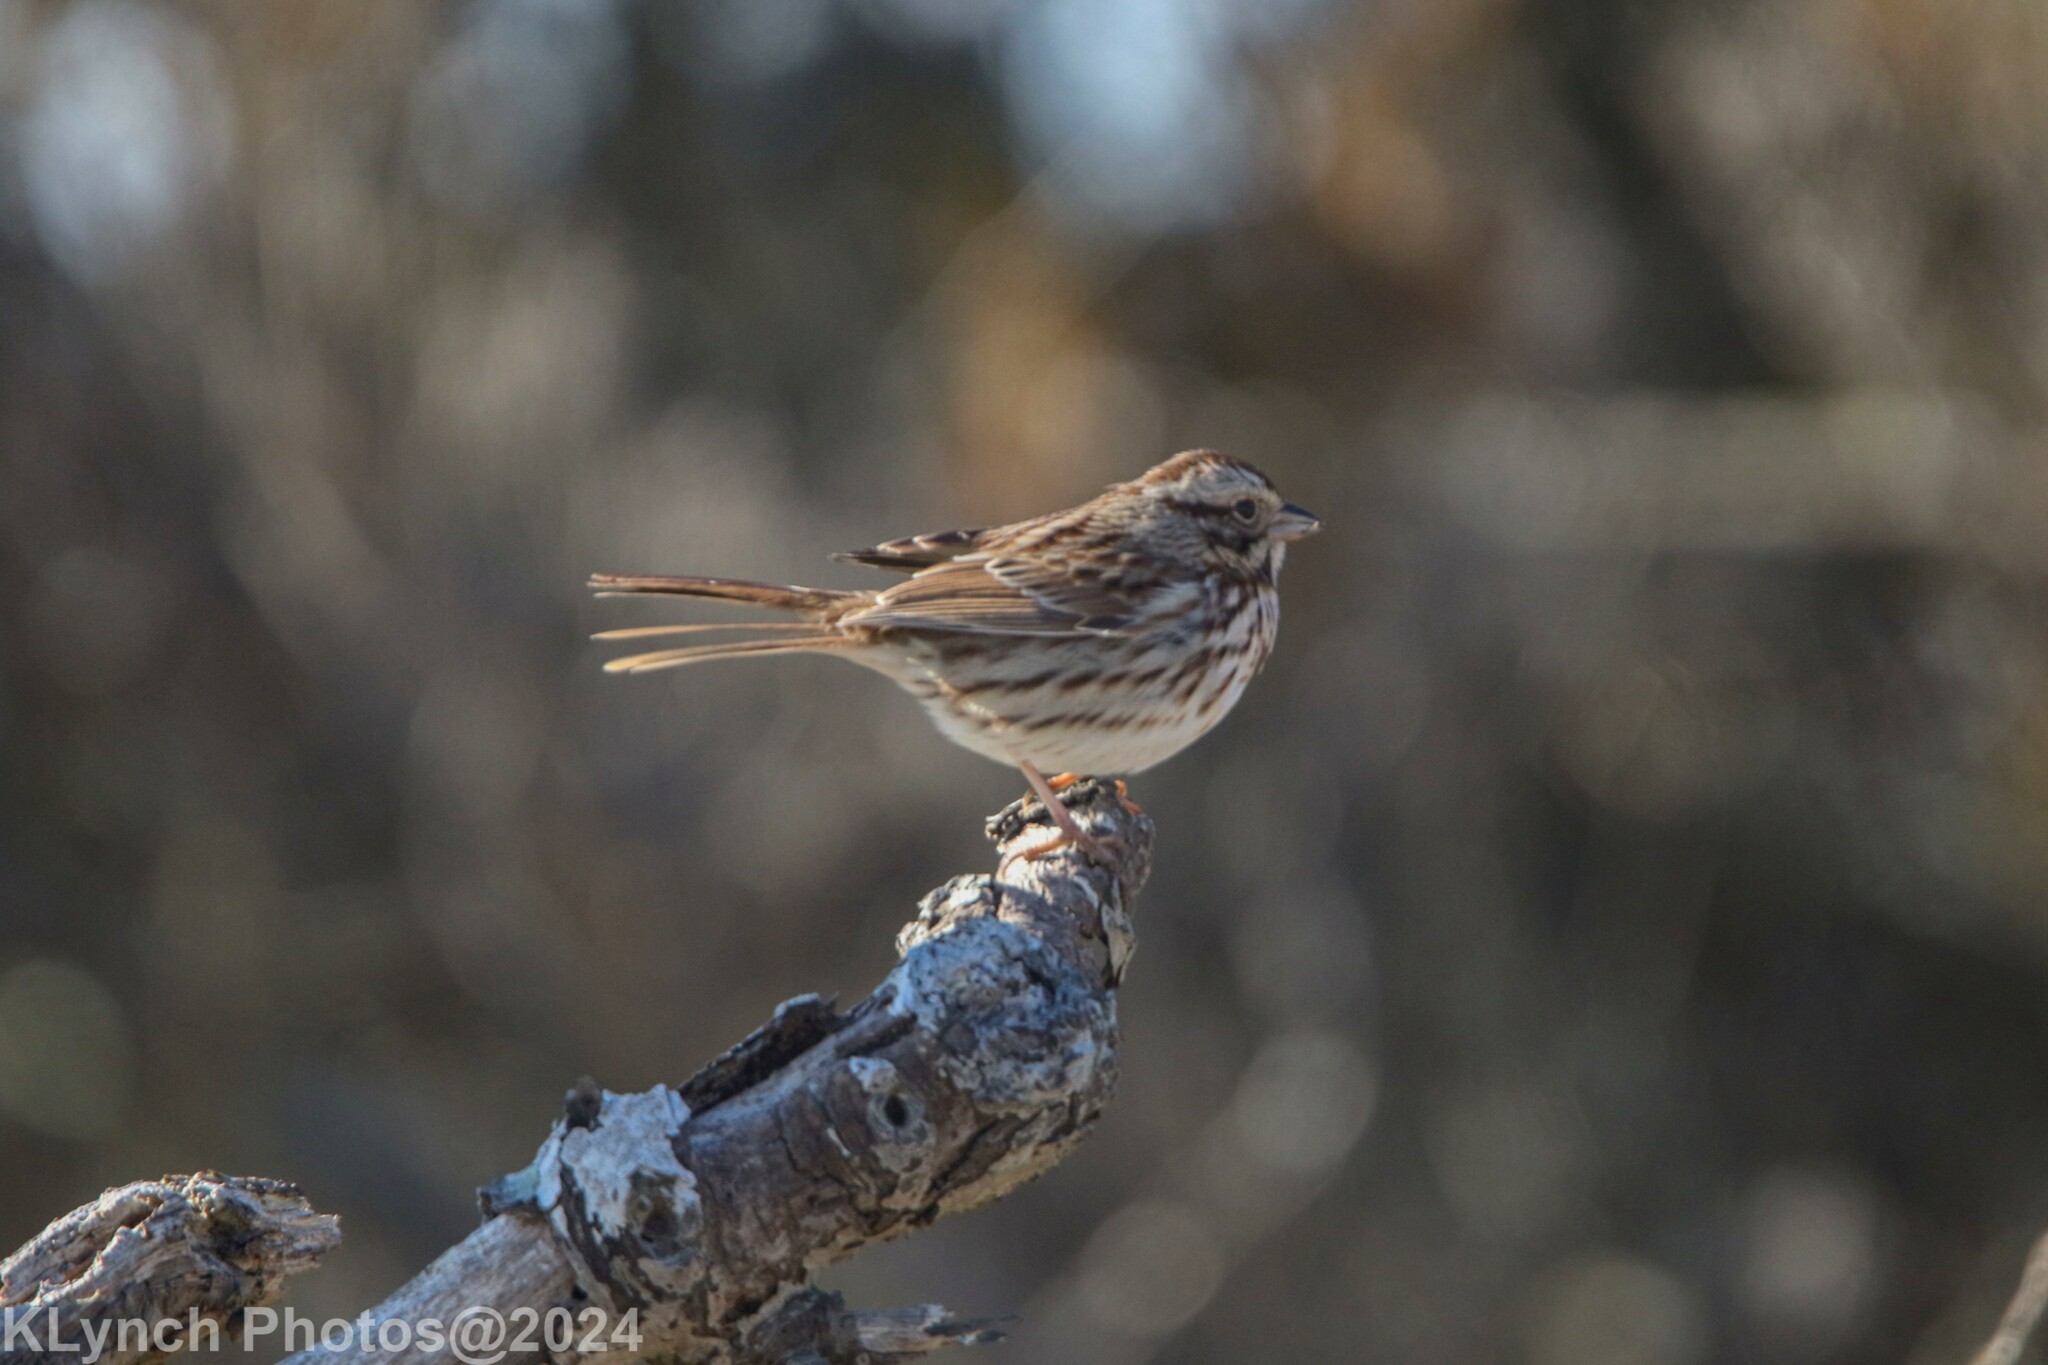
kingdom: Animalia
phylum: Chordata
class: Aves
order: Passeriformes
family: Passerellidae
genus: Melospiza
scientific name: Melospiza melodia
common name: Song sparrow
